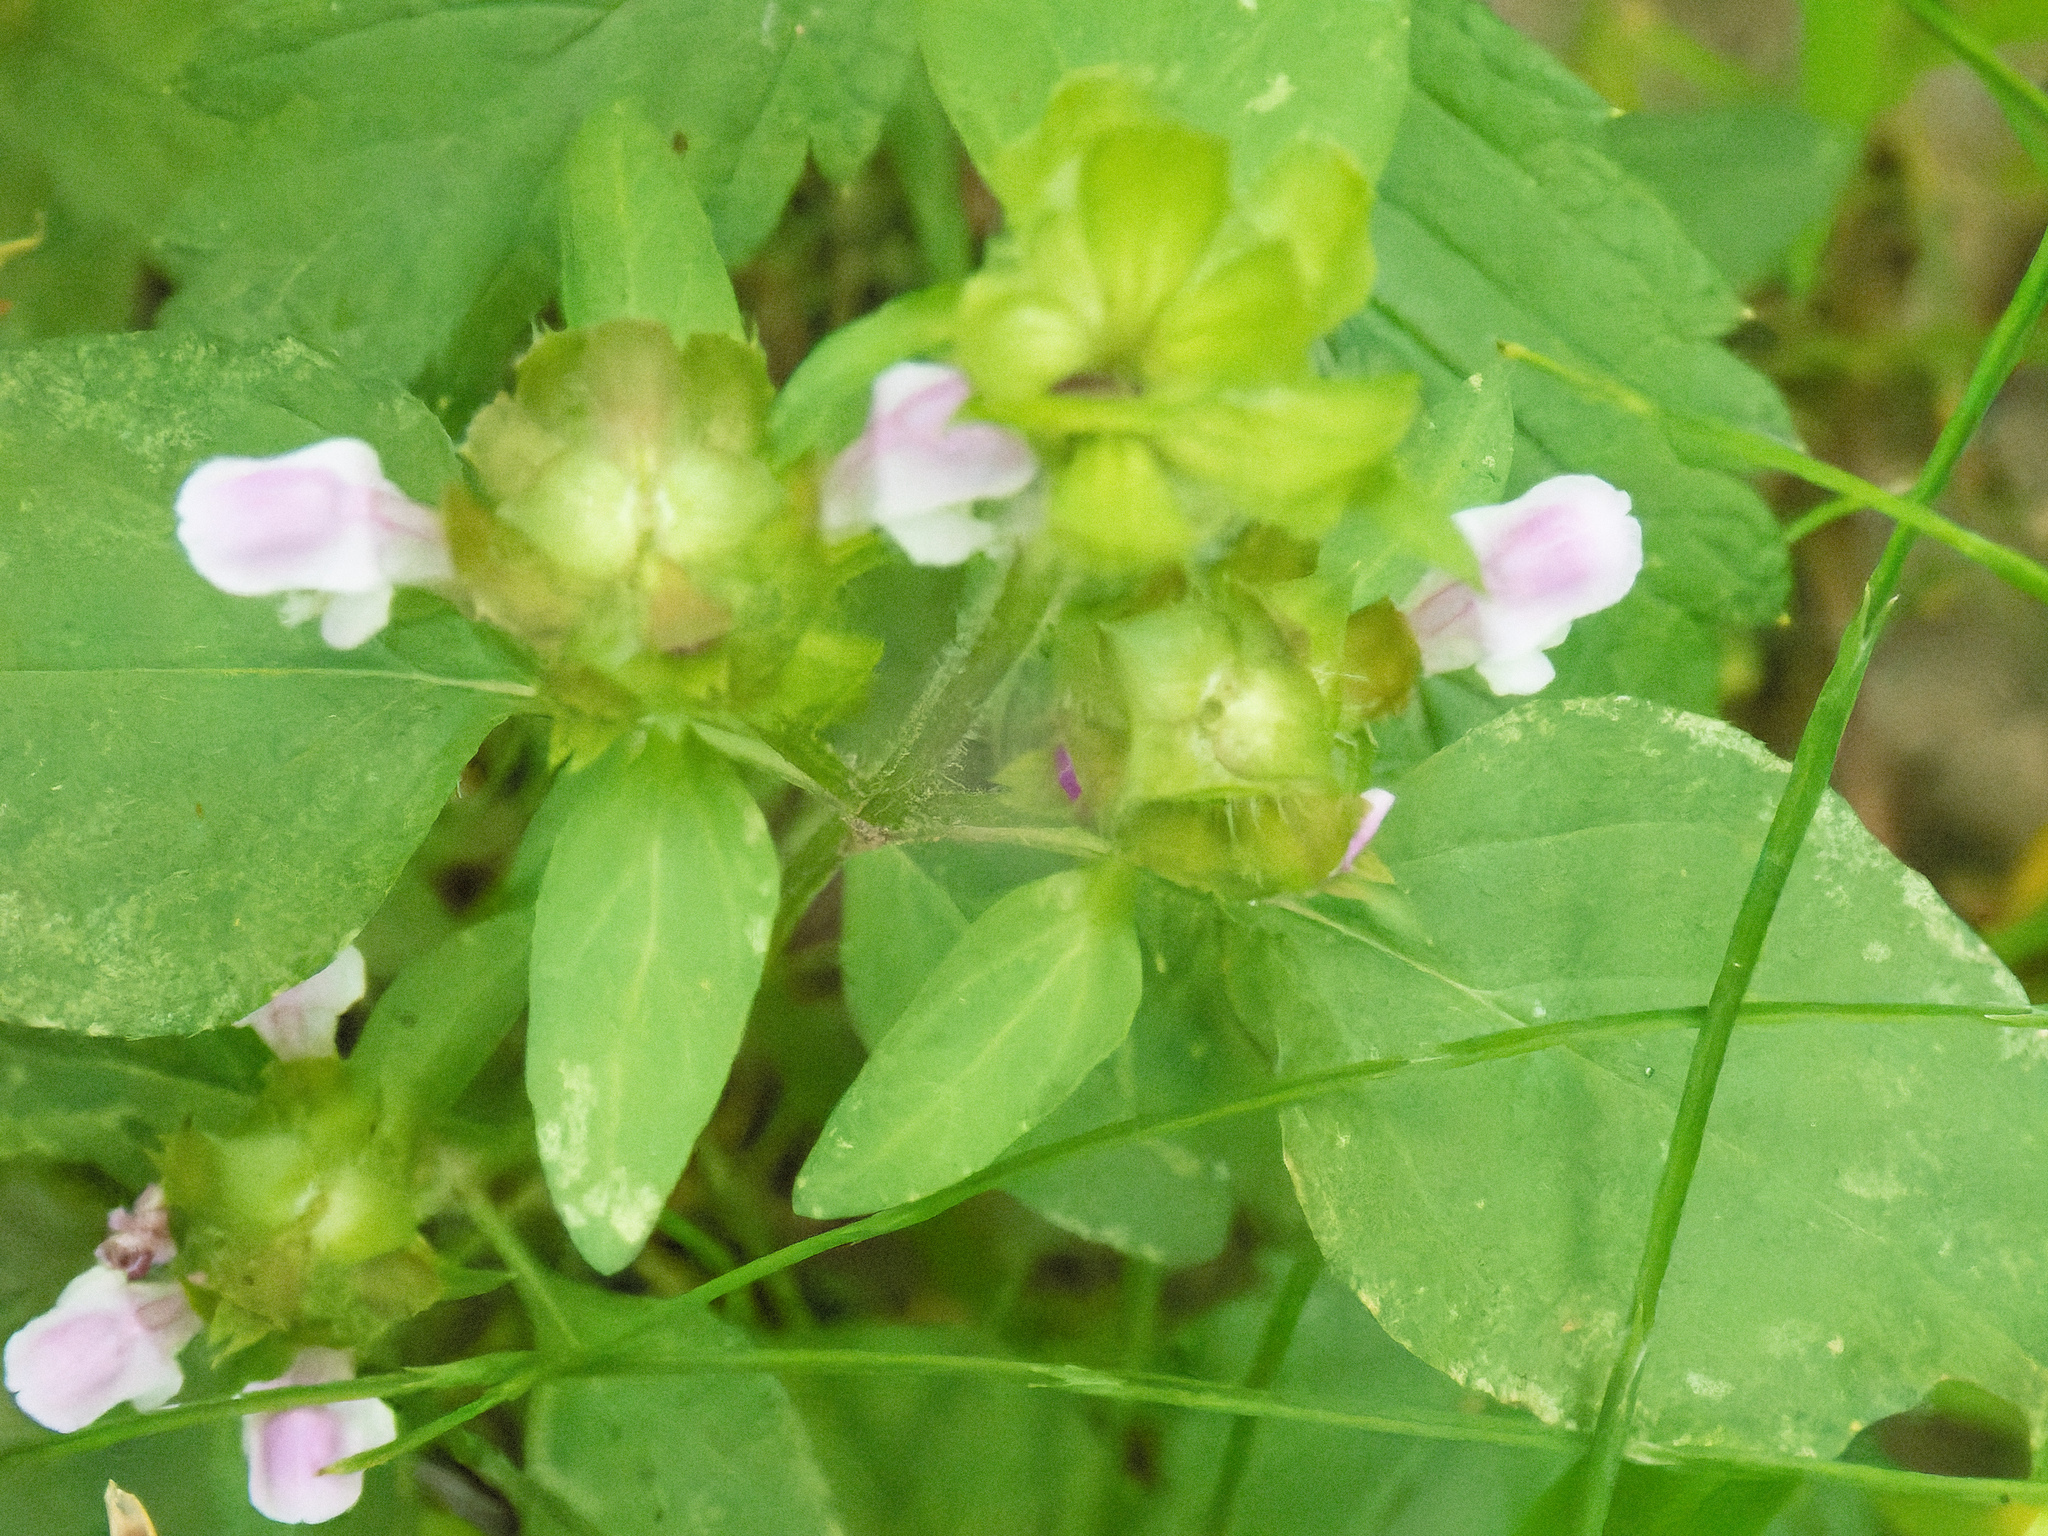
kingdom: Plantae
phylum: Tracheophyta
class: Magnoliopsida
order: Lamiales
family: Lamiaceae
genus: Prunella
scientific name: Prunella vulgaris
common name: Heal-all
